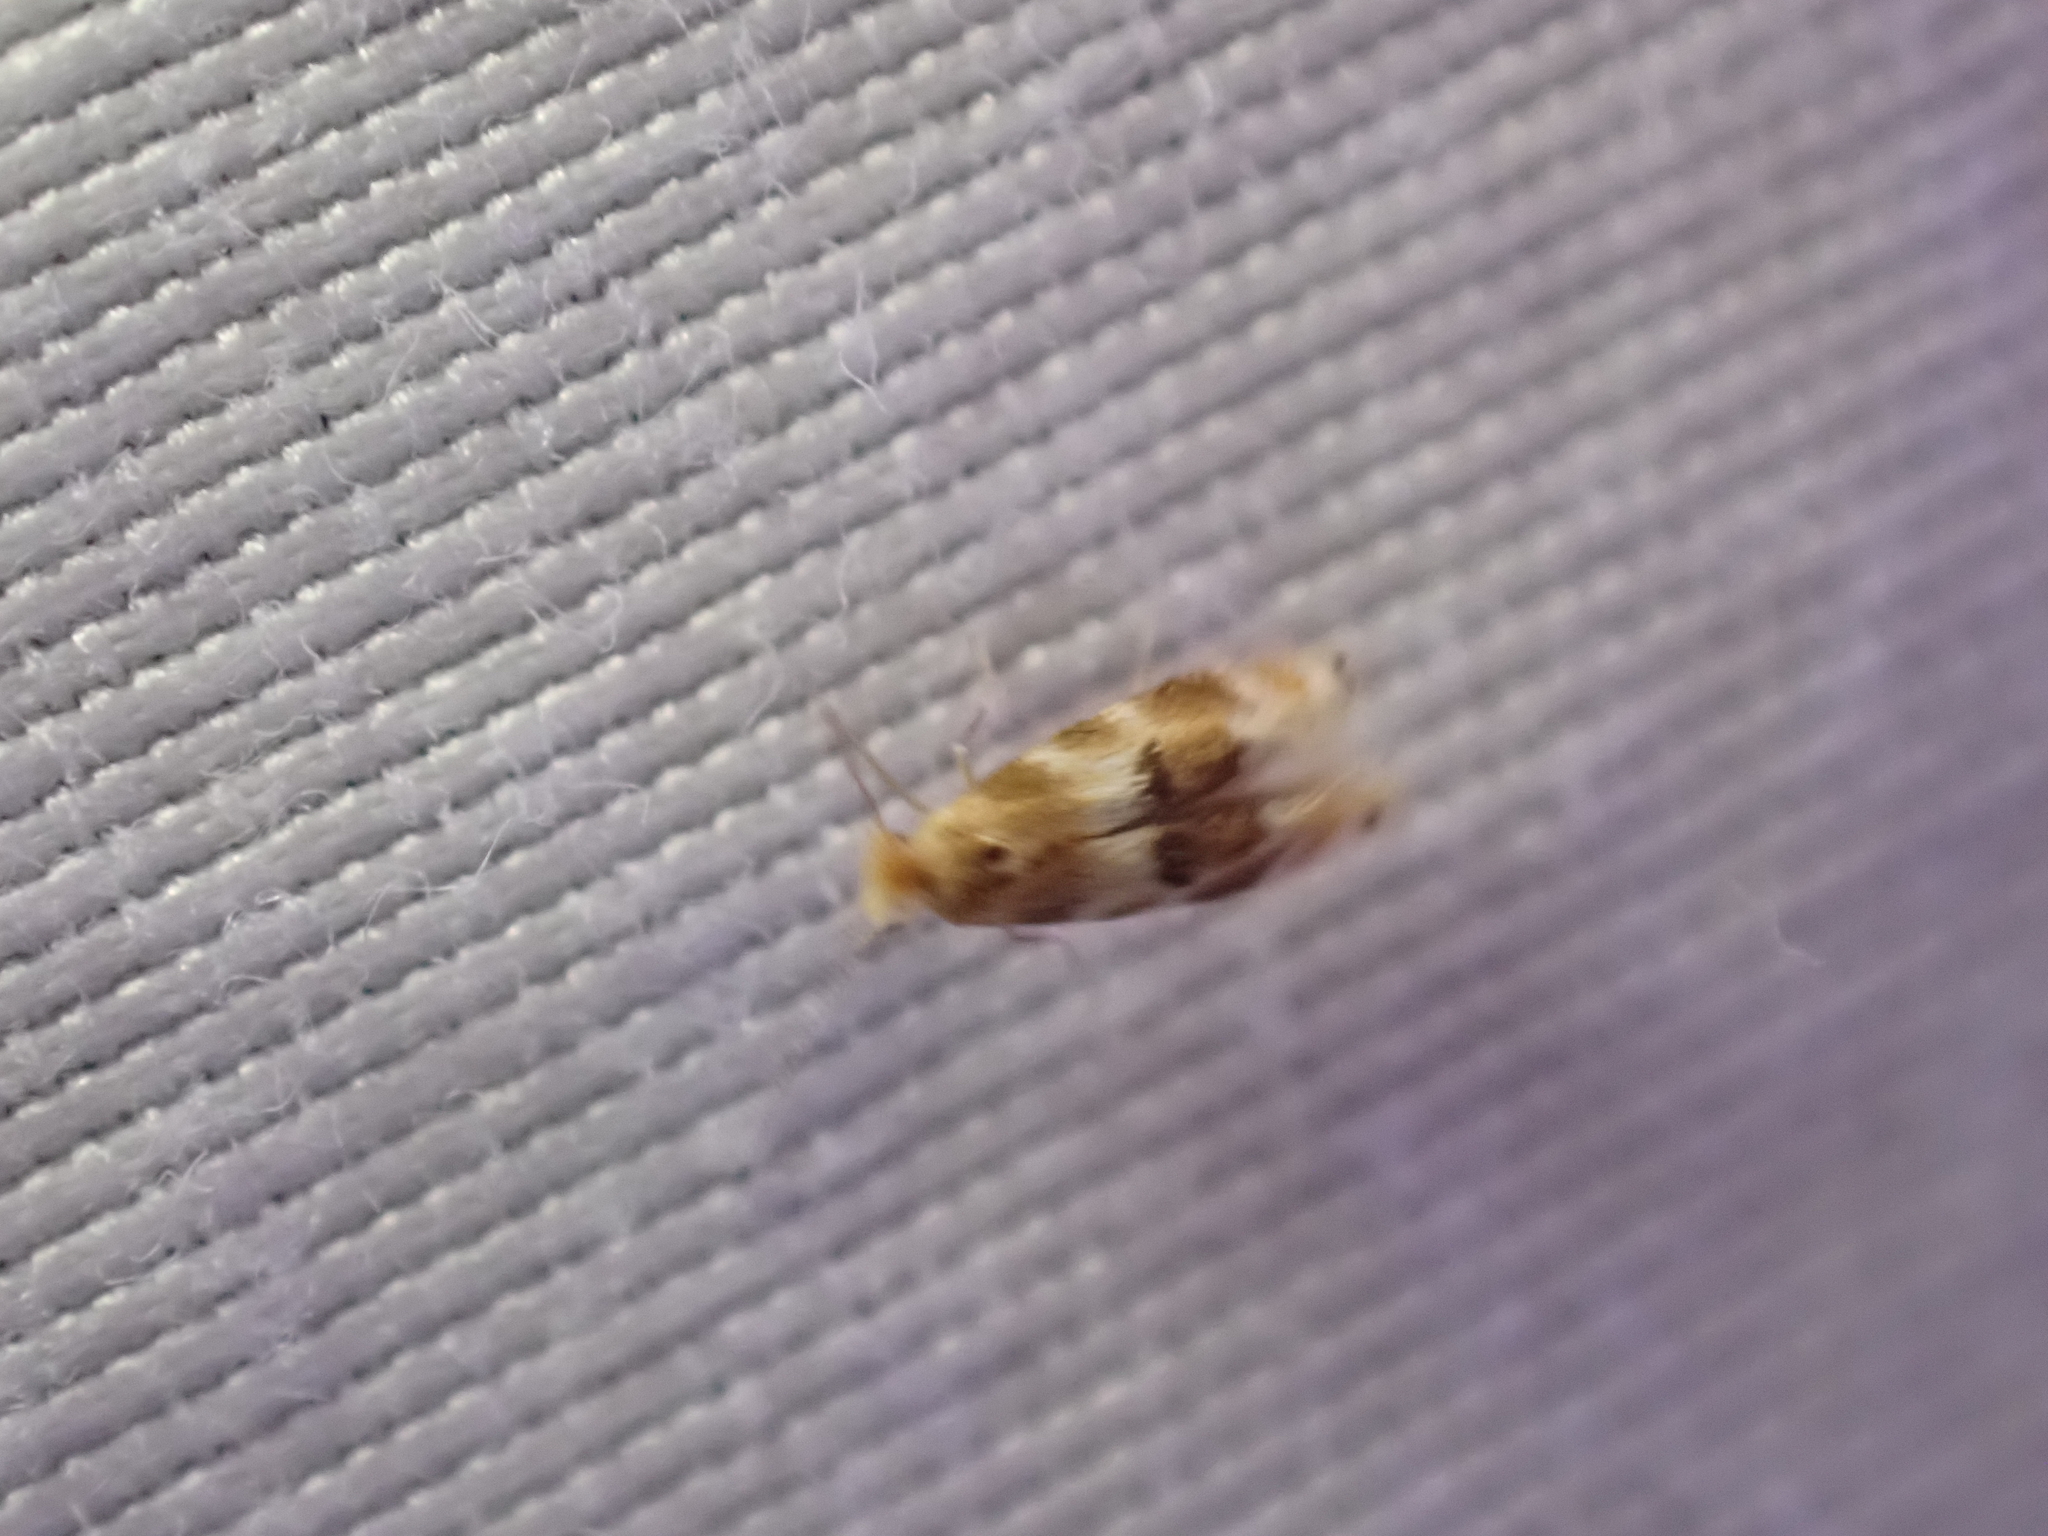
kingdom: Animalia
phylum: Arthropoda
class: Insecta
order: Lepidoptera
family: Bucculatricidae
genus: Bucculatrix
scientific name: Bucculatrix zophopasta
